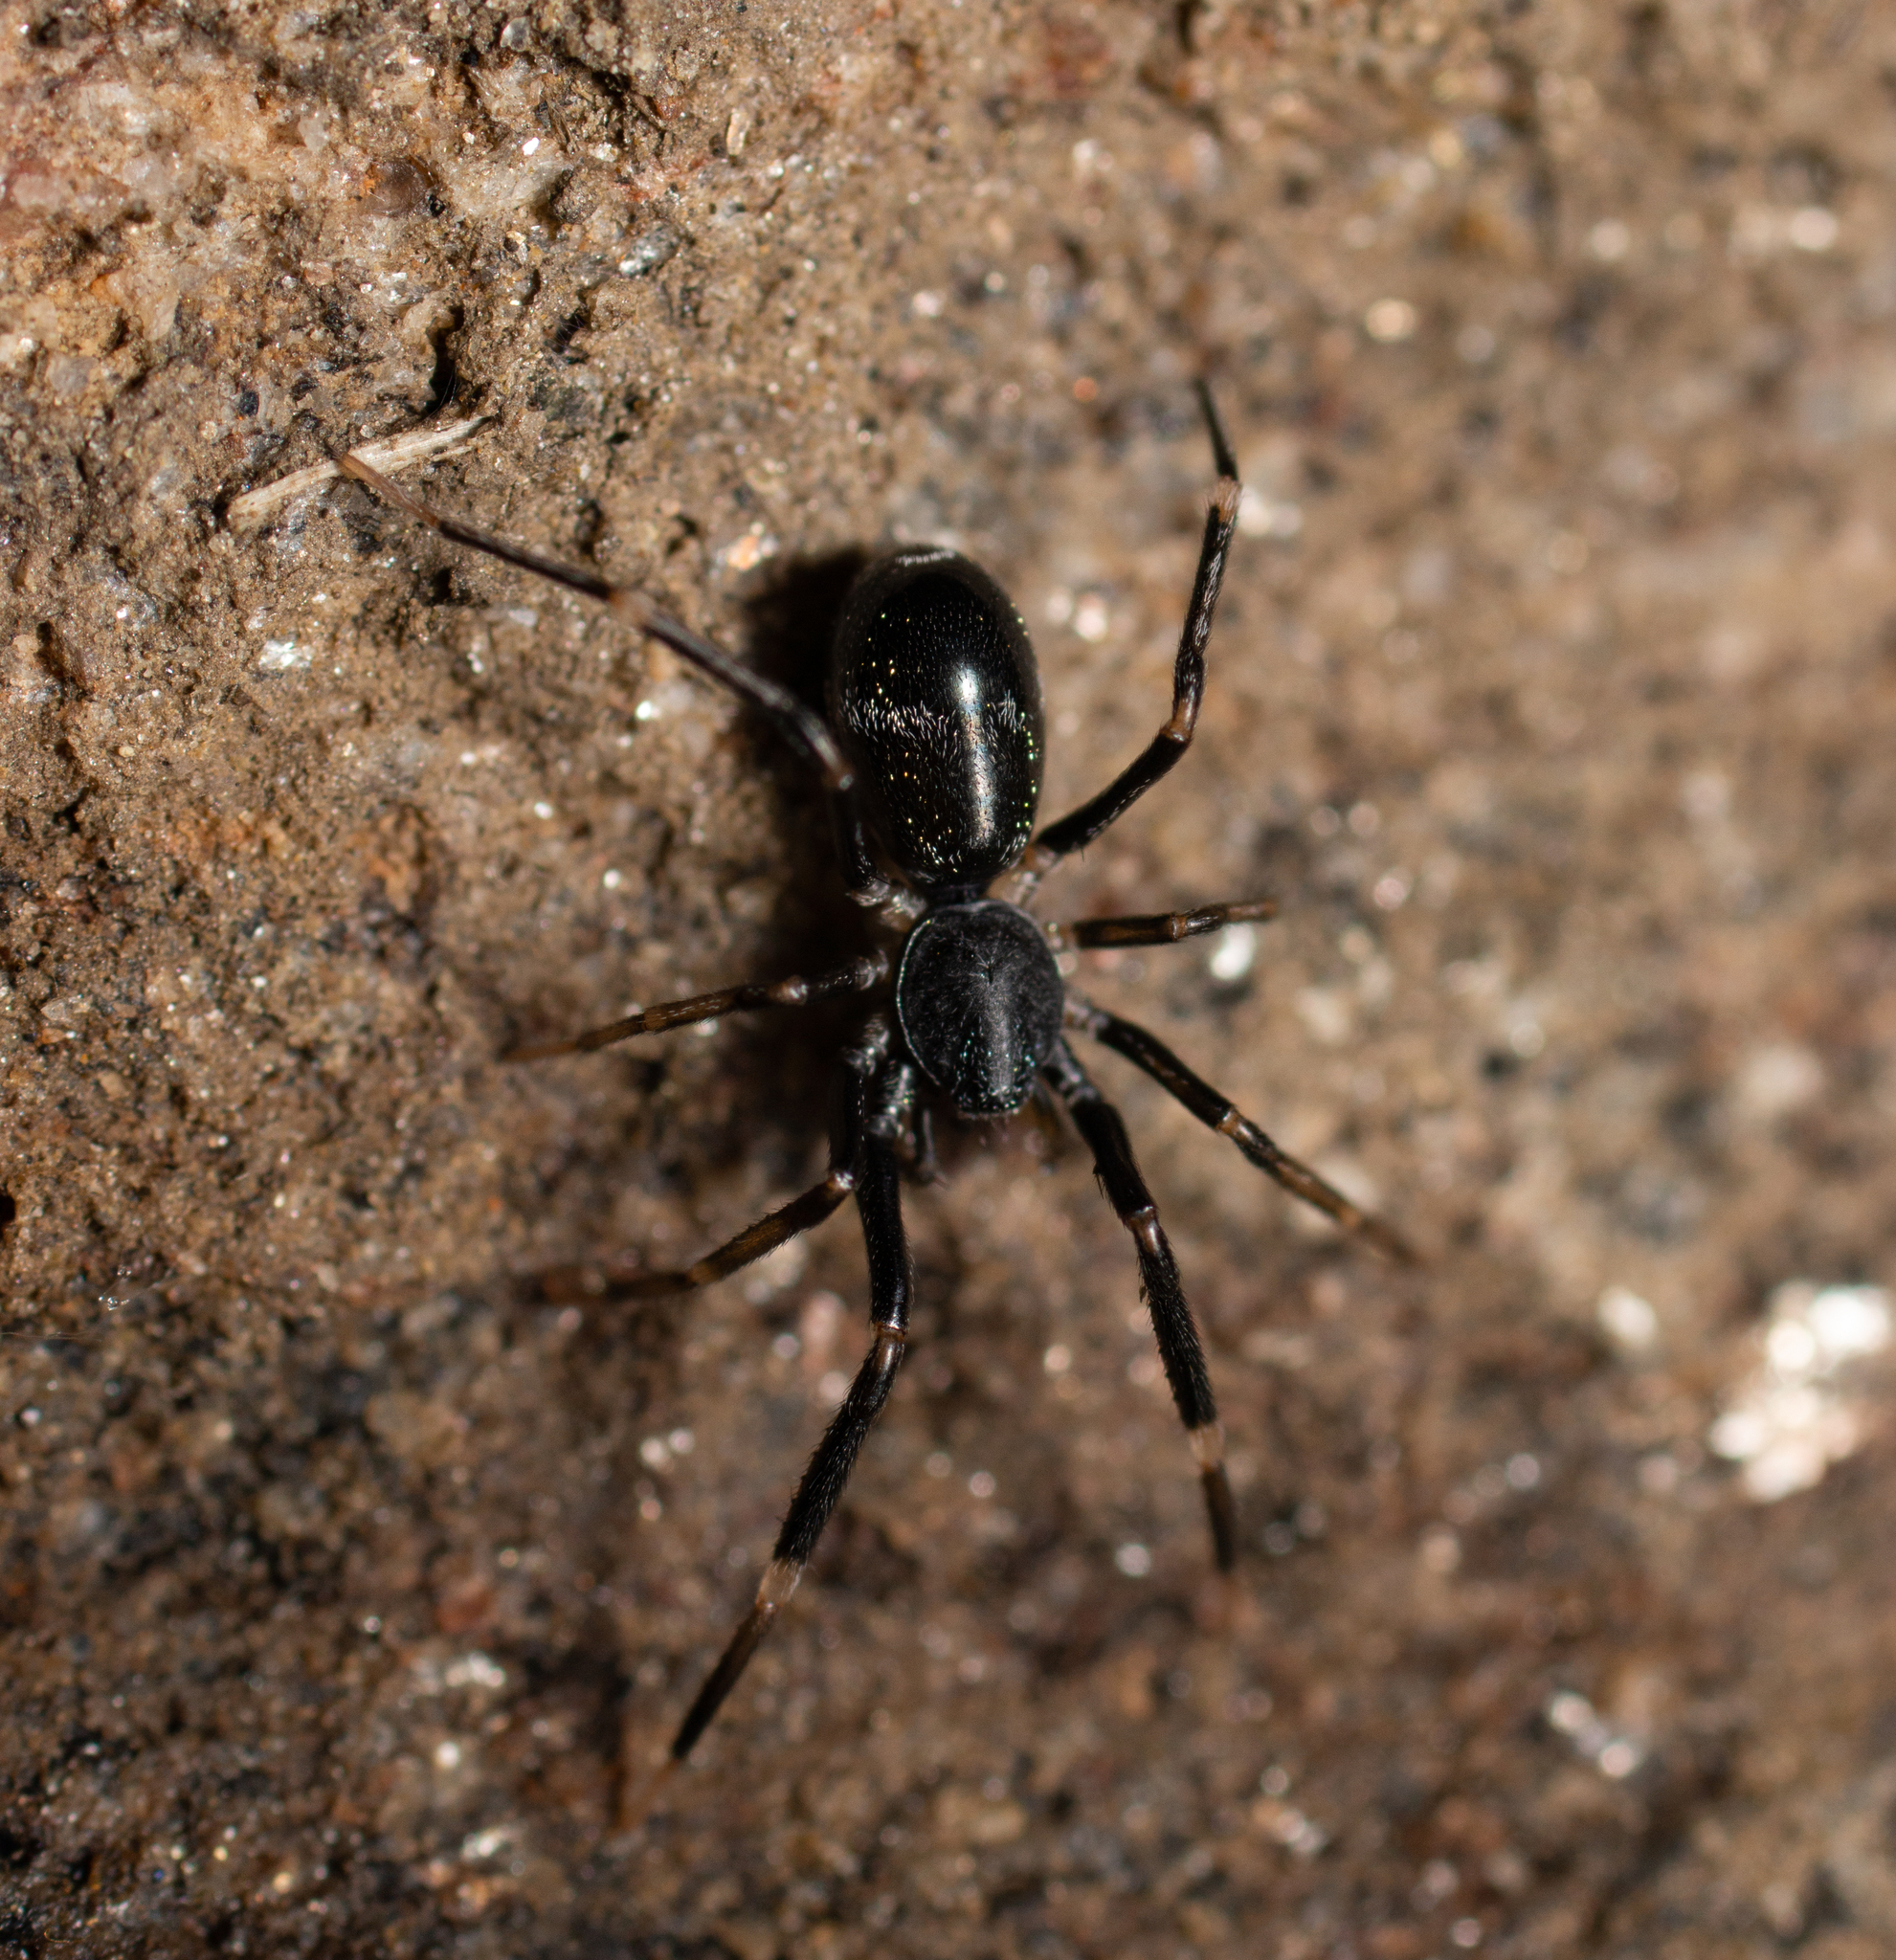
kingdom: Animalia
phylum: Arthropoda
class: Arachnida
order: Araneae
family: Phrurolithidae
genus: Liophrurillus
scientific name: Liophrurillus flavitarsis
